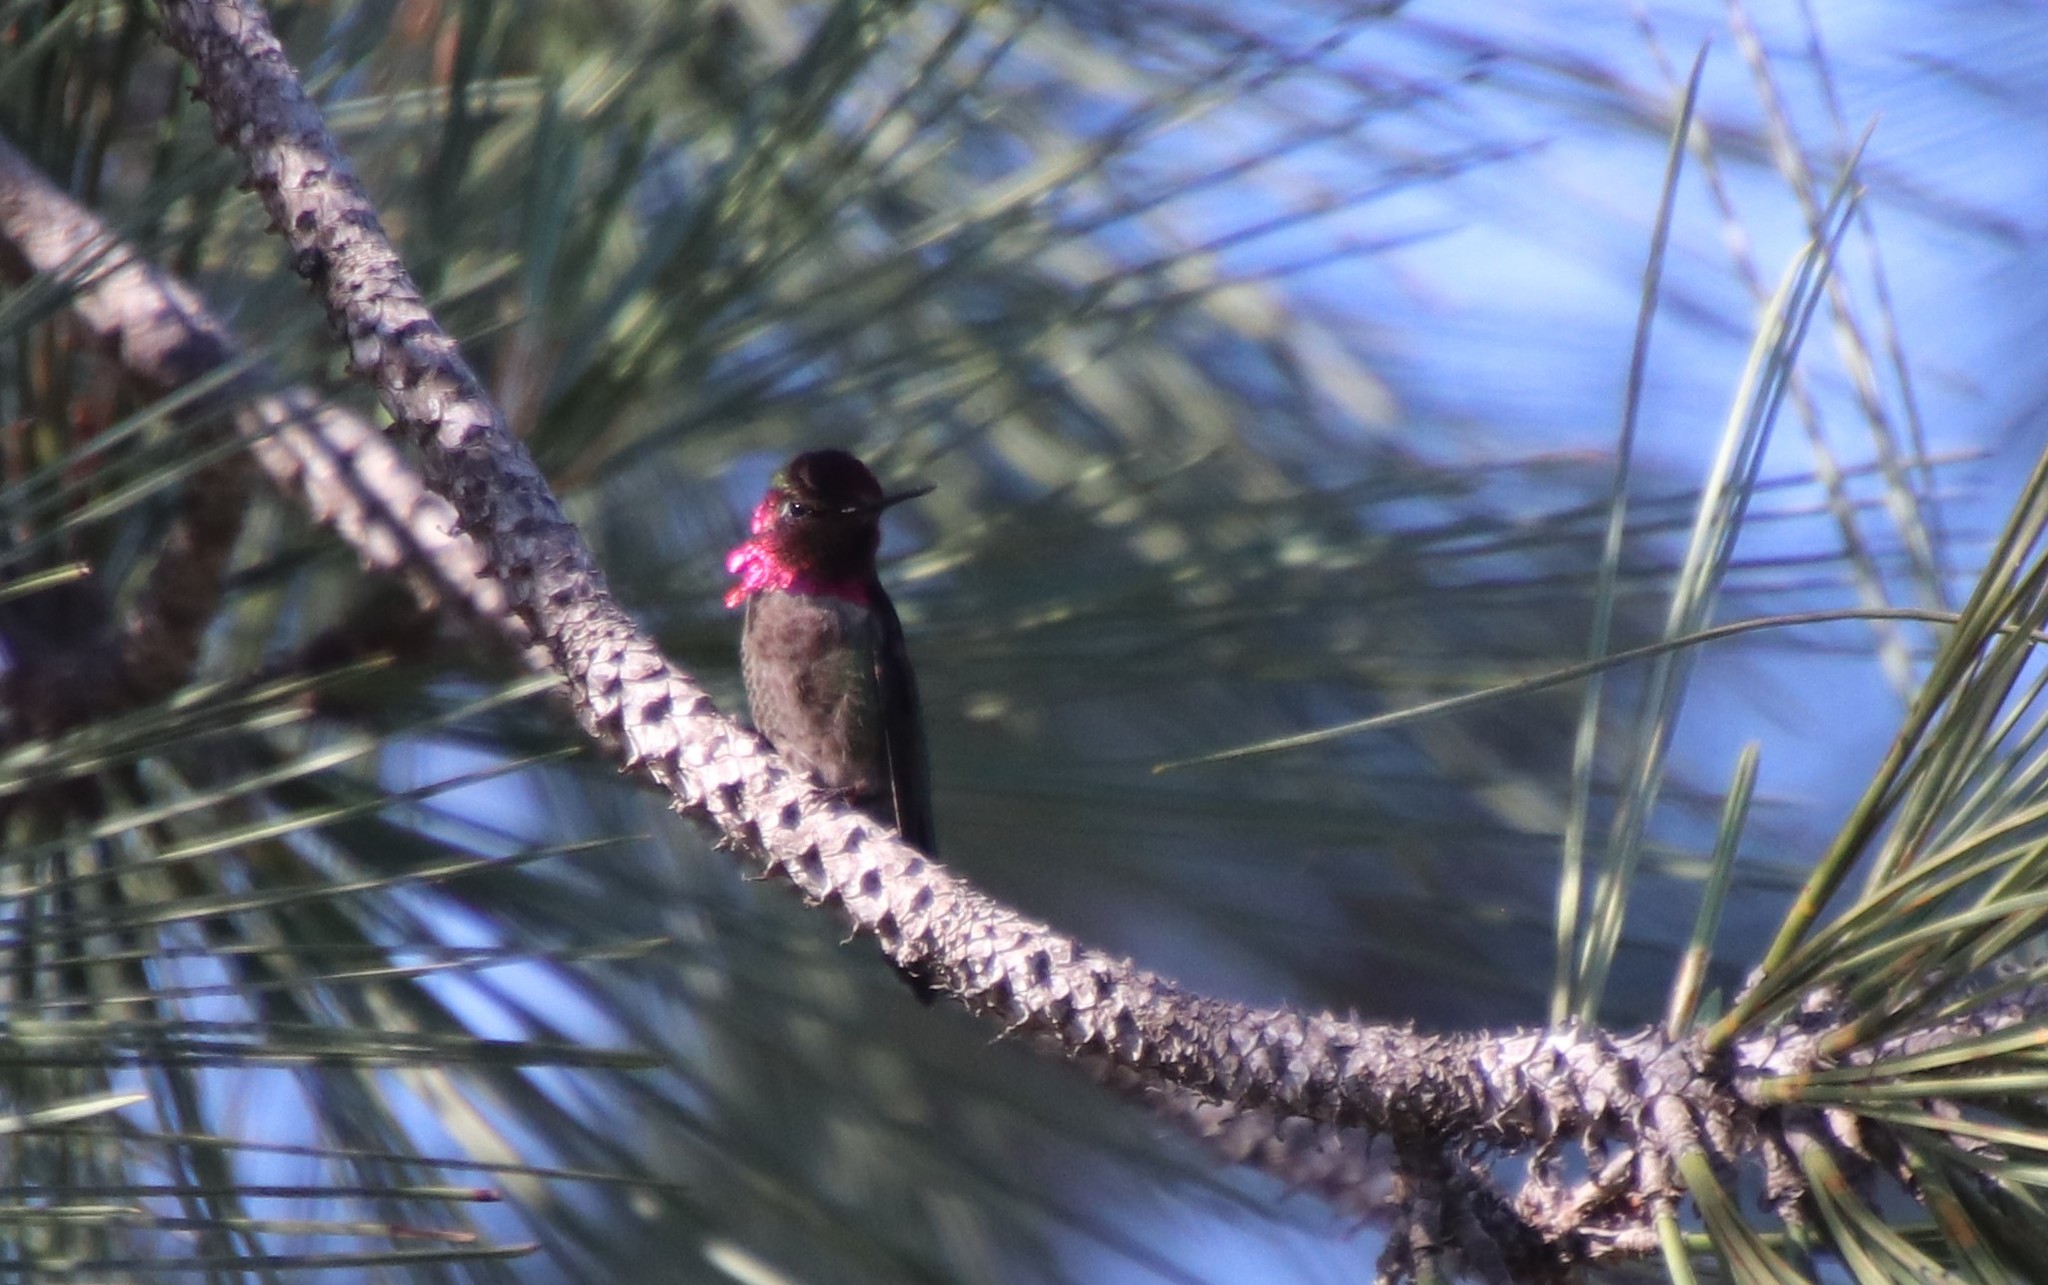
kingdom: Animalia
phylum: Chordata
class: Aves
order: Apodiformes
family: Trochilidae
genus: Calypte
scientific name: Calypte anna
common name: Anna's hummingbird
